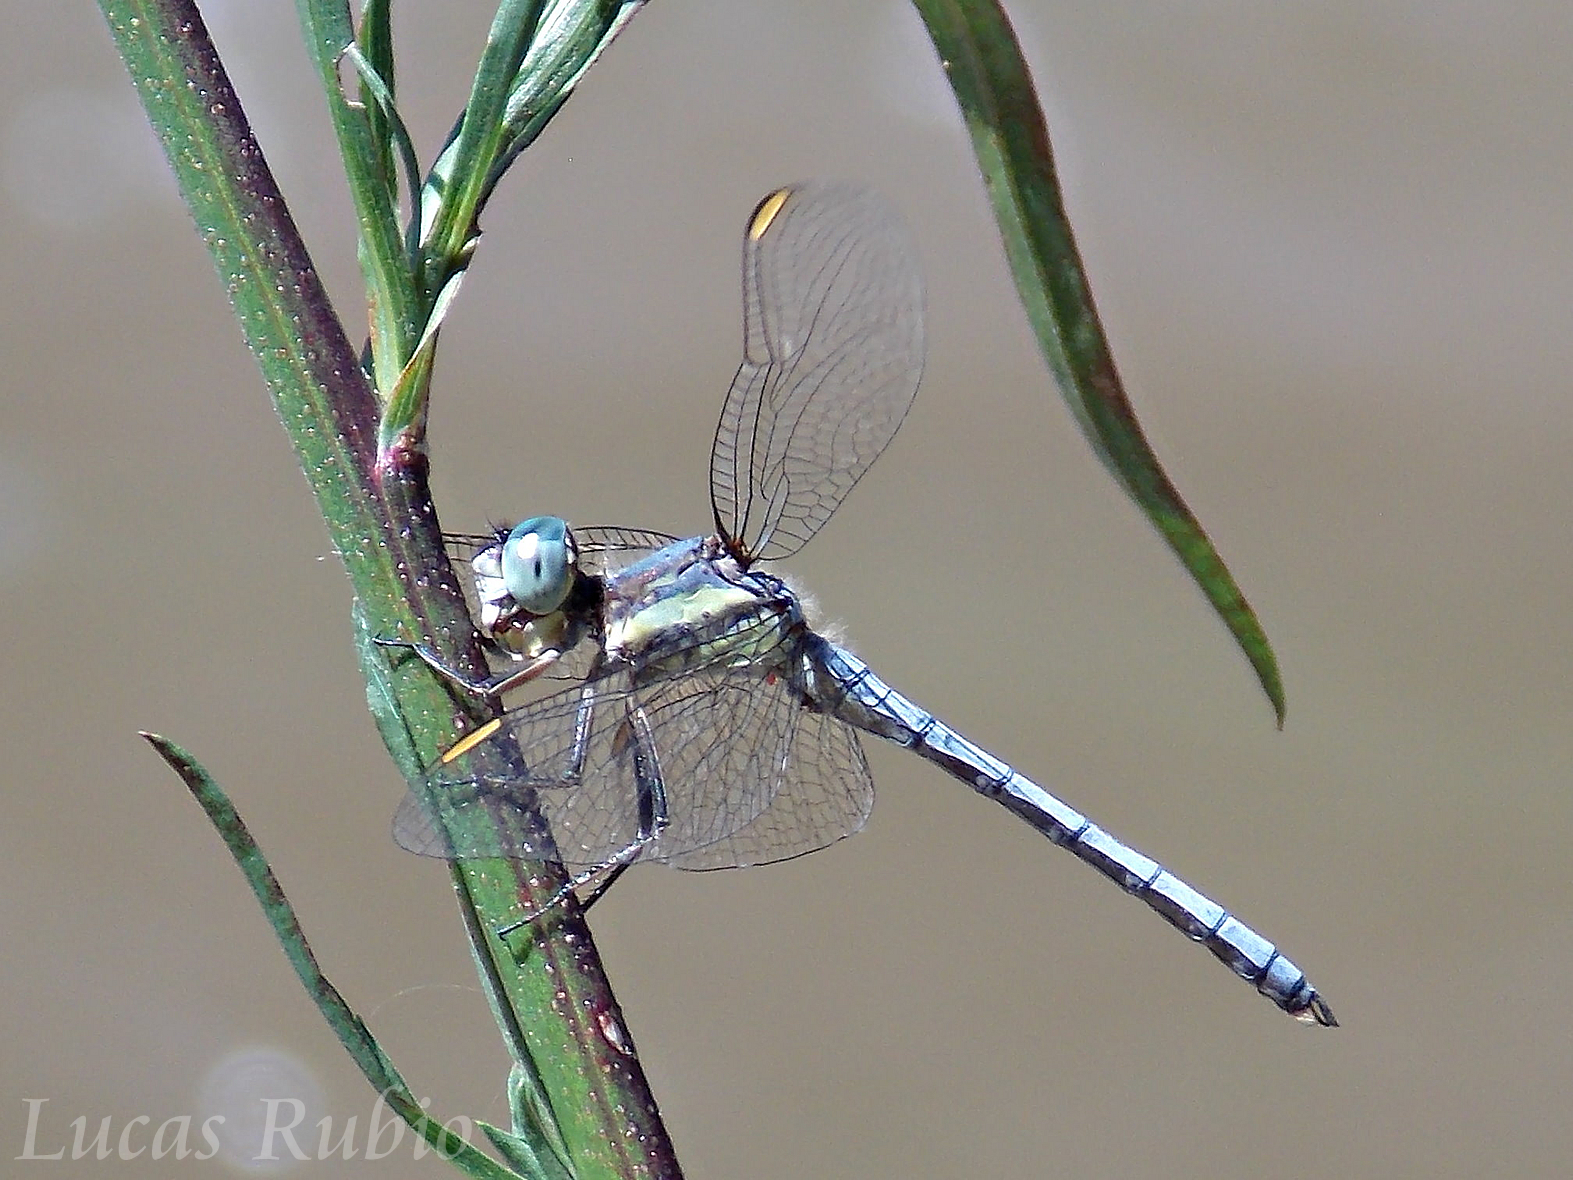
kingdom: Animalia
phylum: Arthropoda
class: Insecta
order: Odonata
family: Libellulidae
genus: Dasythemis
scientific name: Dasythemis mincki
